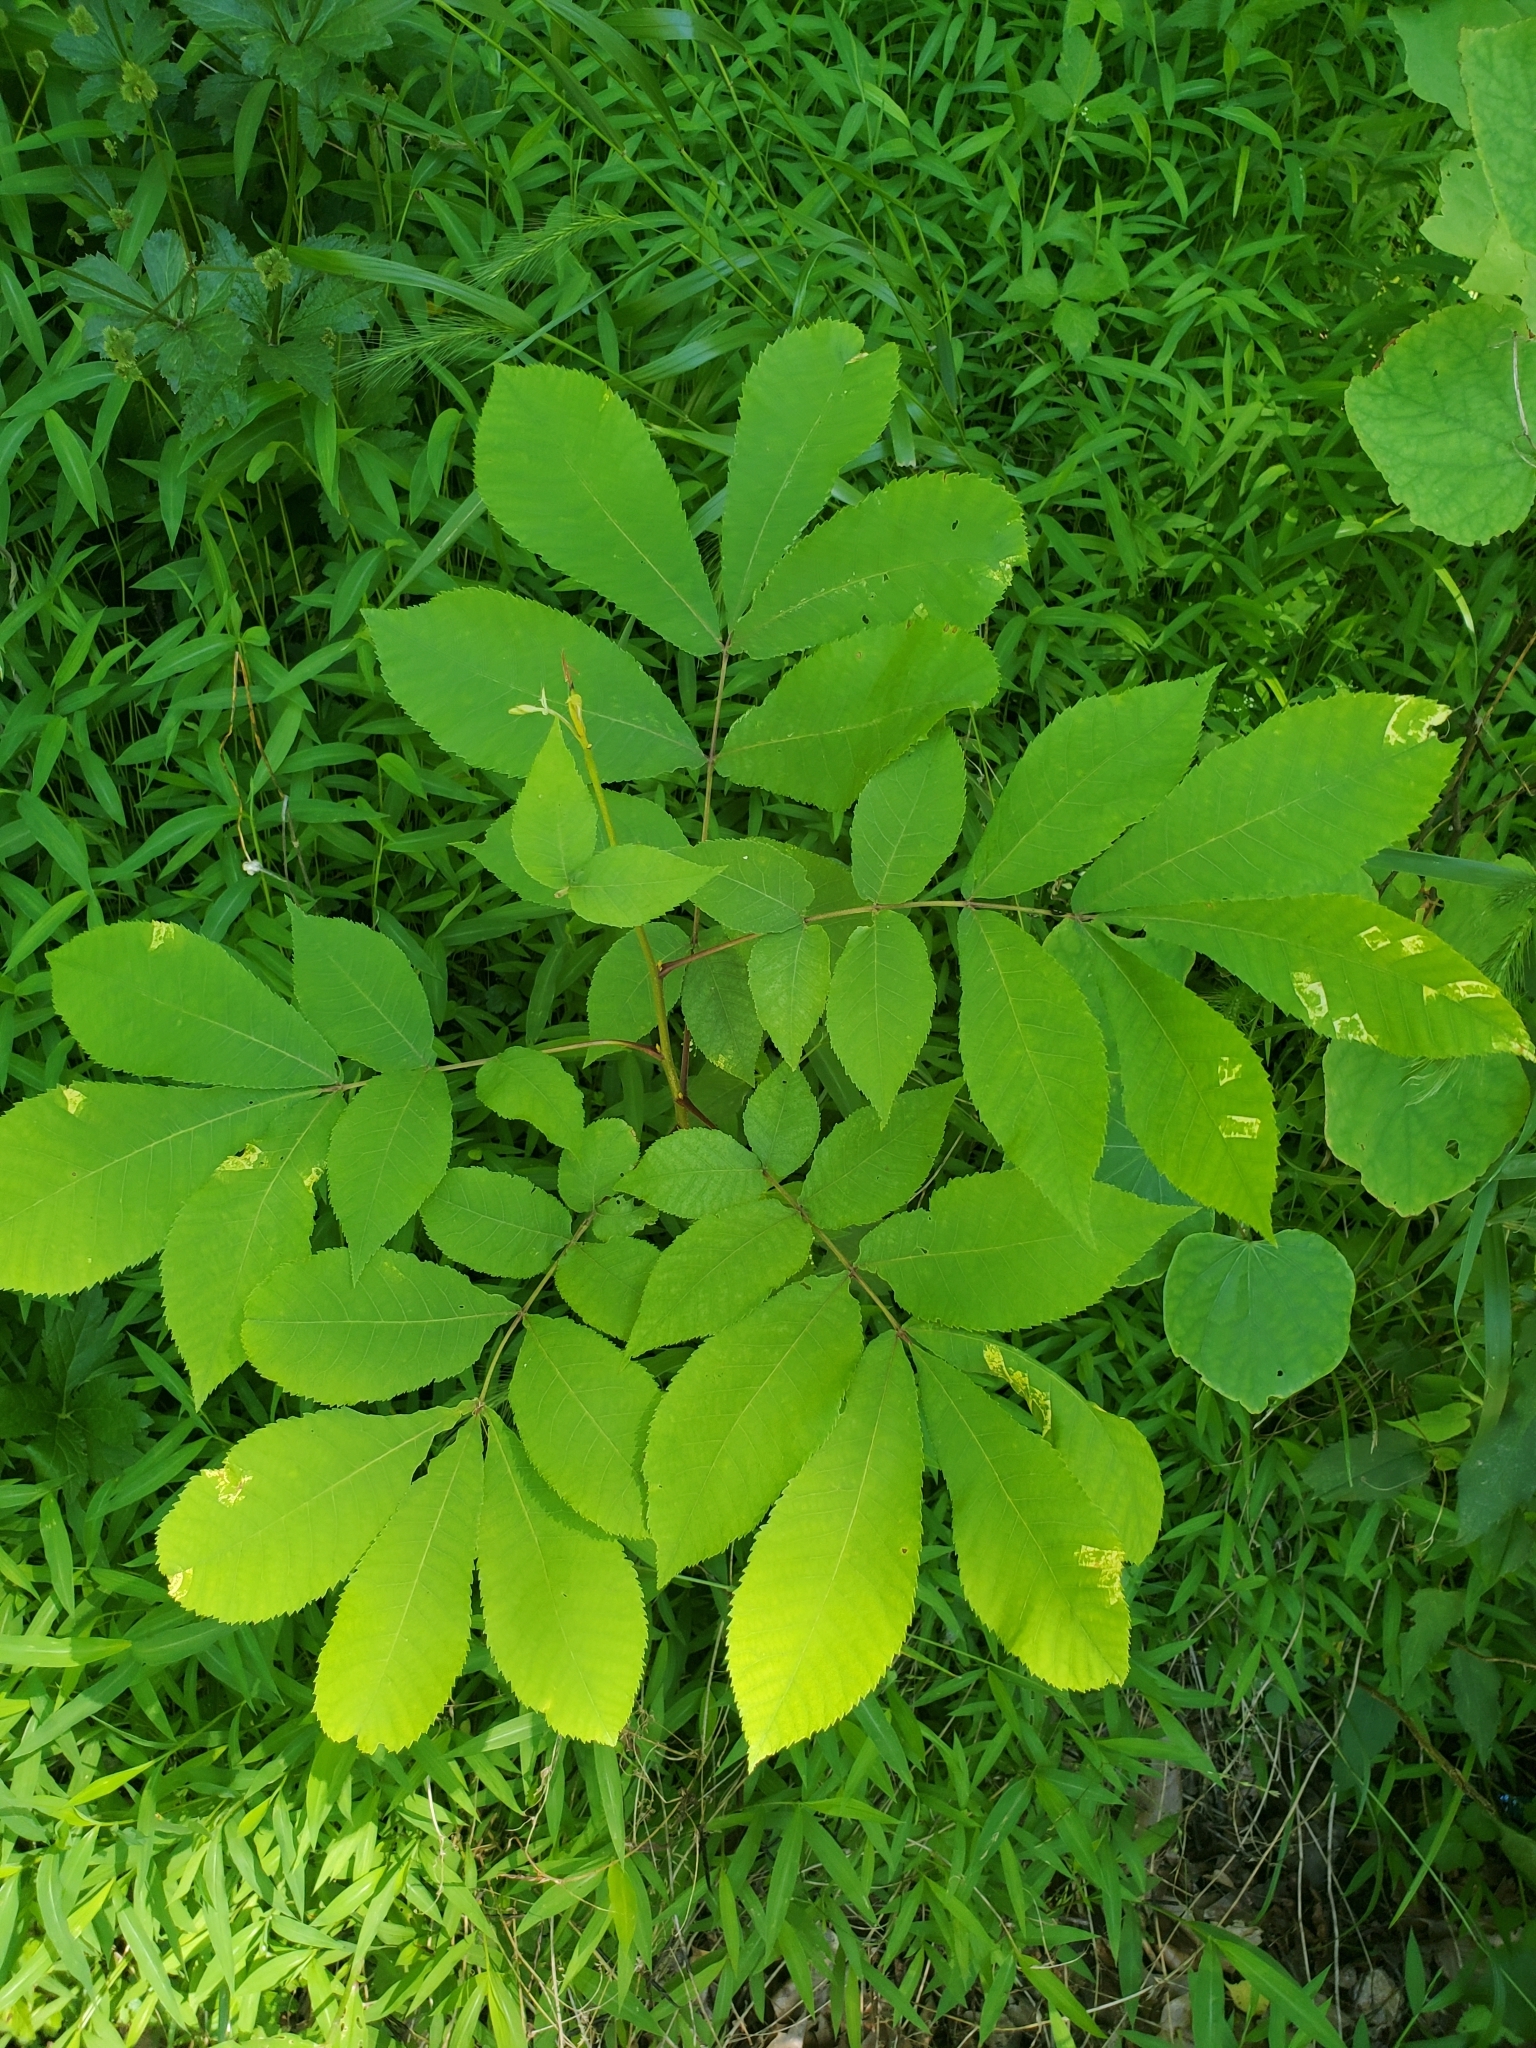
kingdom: Plantae
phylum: Tracheophyta
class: Magnoliopsida
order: Fagales
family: Juglandaceae
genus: Carya
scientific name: Carya cordiformis
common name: Bitternut hickory
